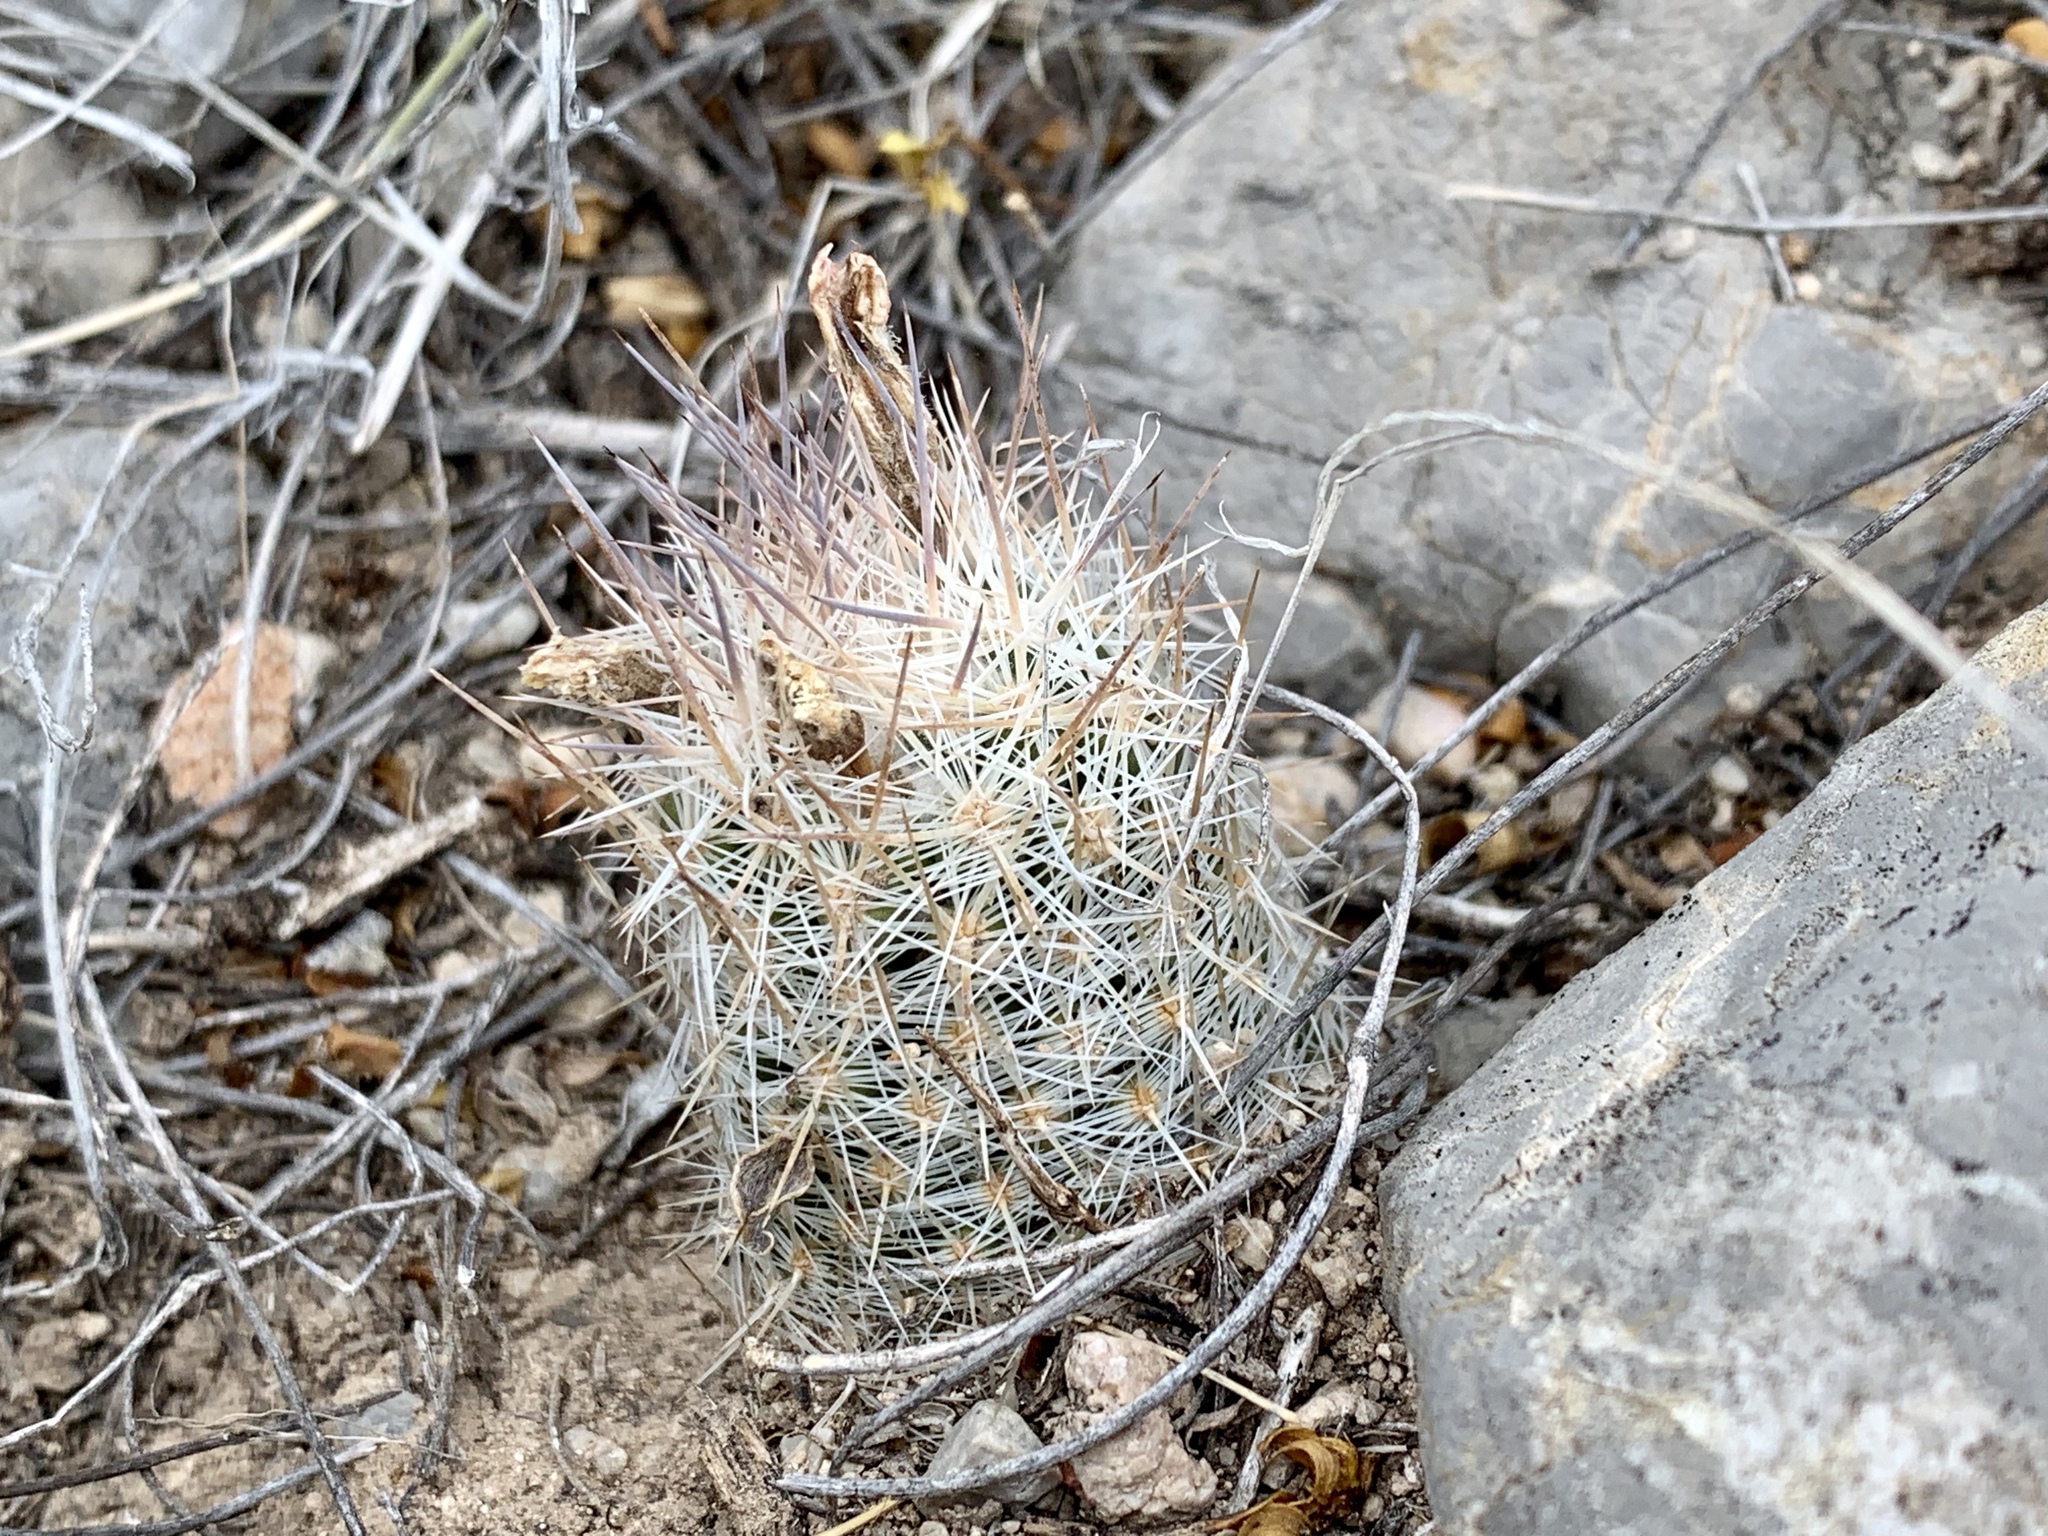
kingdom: Plantae
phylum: Tracheophyta
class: Magnoliopsida
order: Caryophyllales
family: Cactaceae
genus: Pelecyphora
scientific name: Pelecyphora tuberculosa
